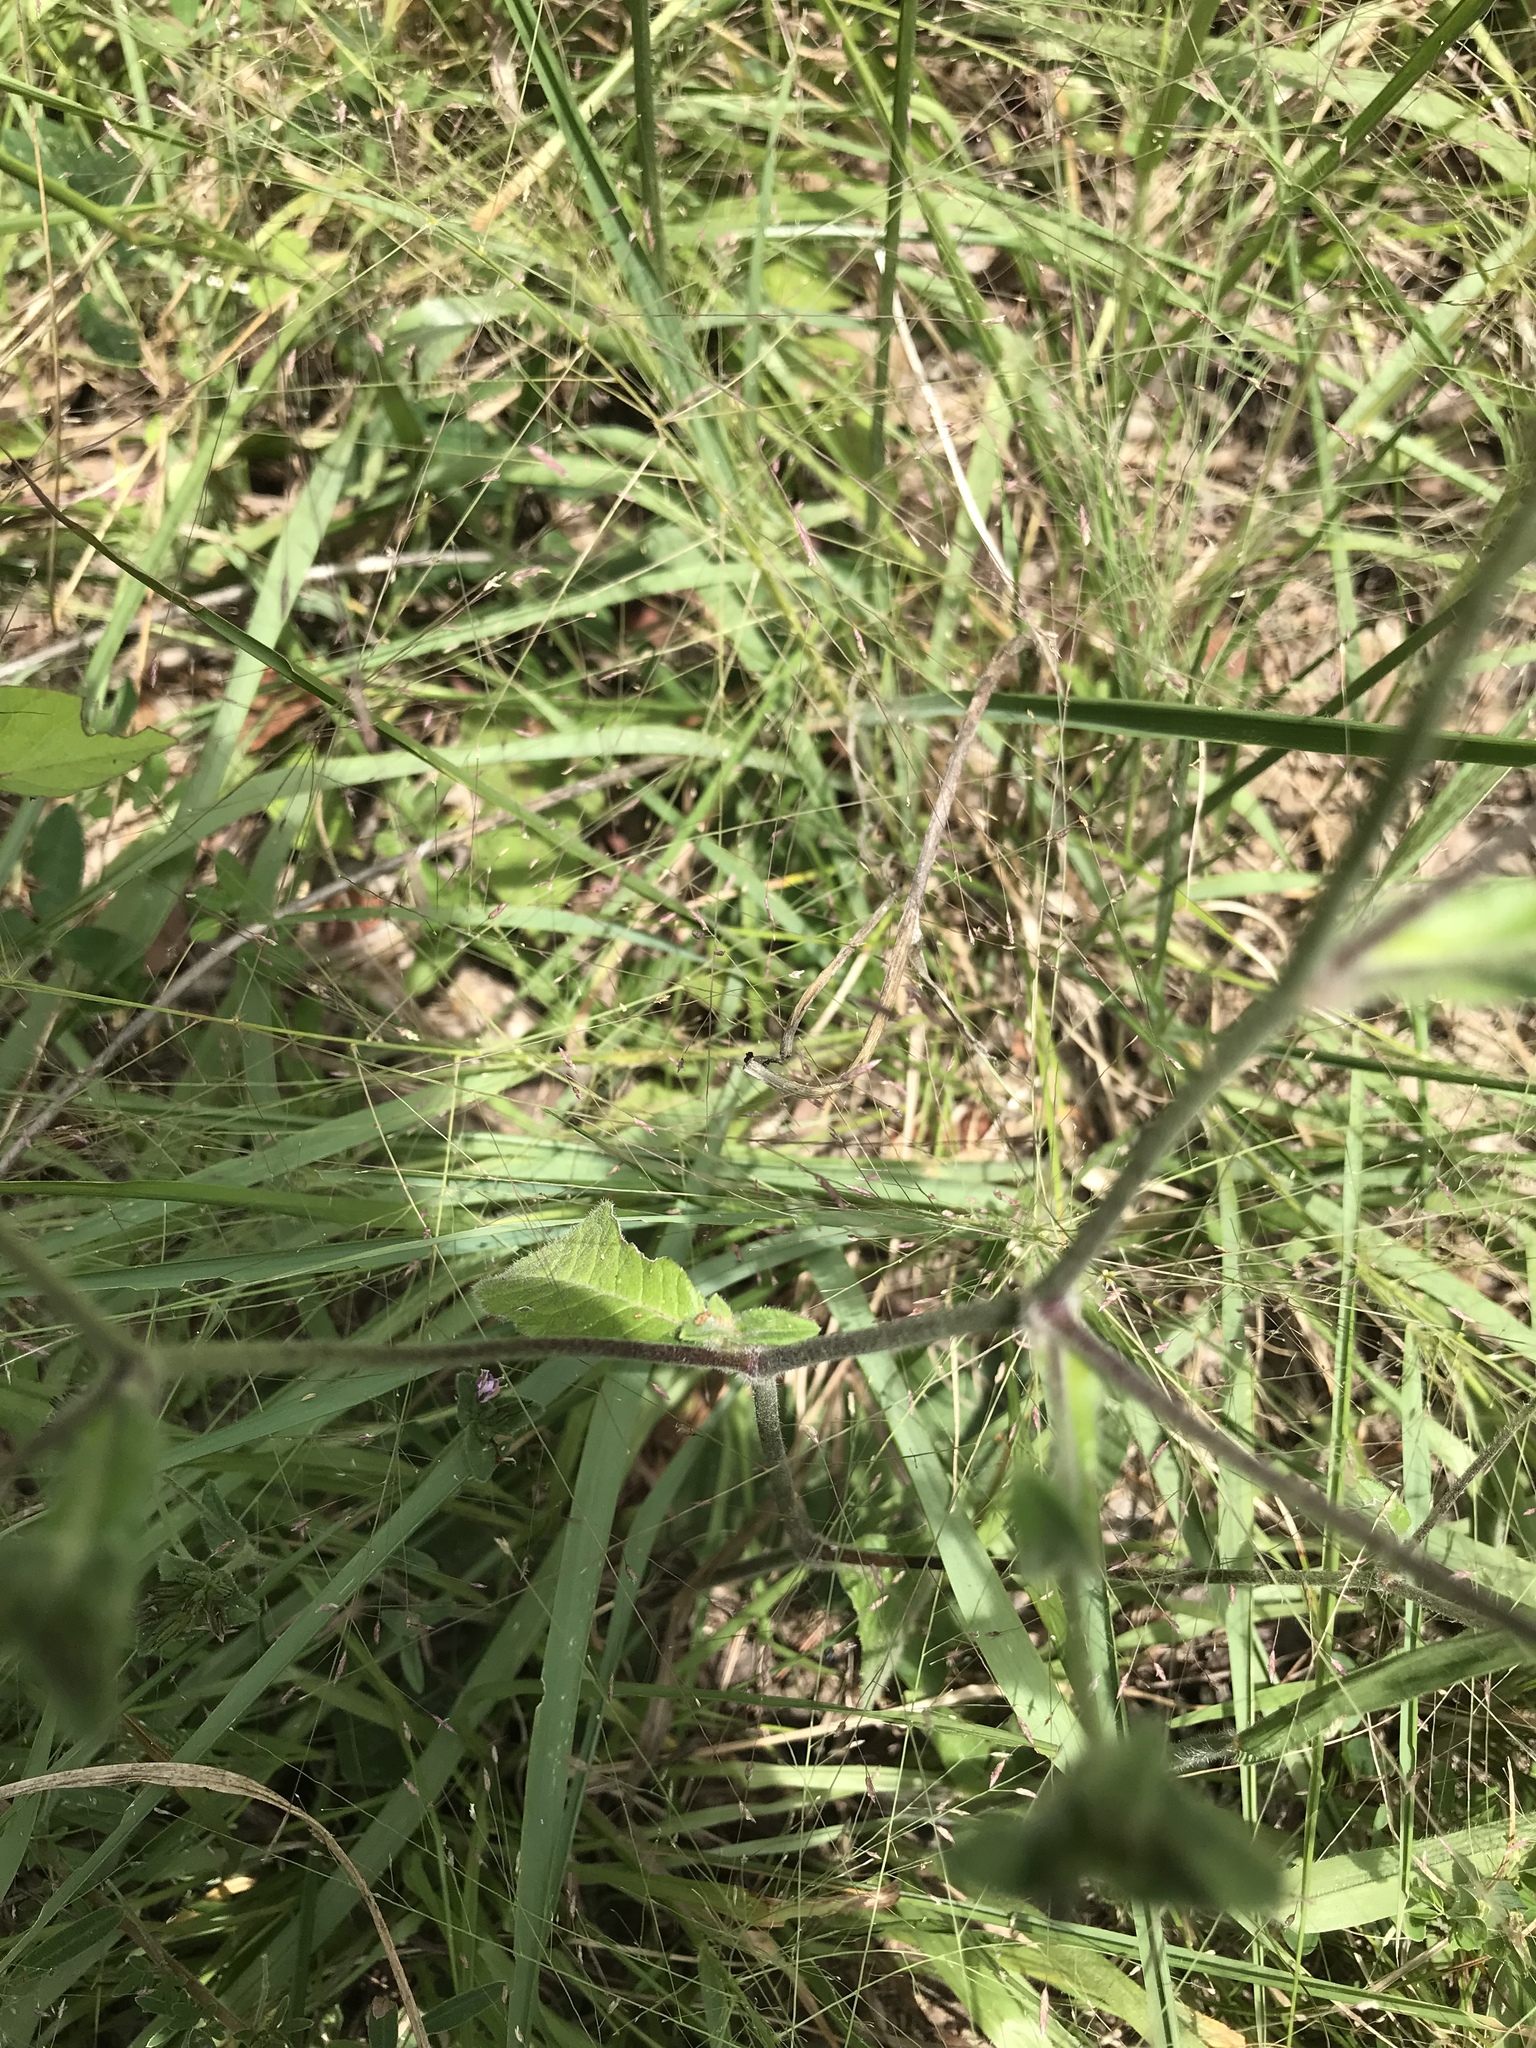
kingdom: Plantae
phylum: Tracheophyta
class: Magnoliopsida
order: Asterales
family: Asteraceae
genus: Elephantopus
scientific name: Elephantopus tomentosus
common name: Tobacco-weed
